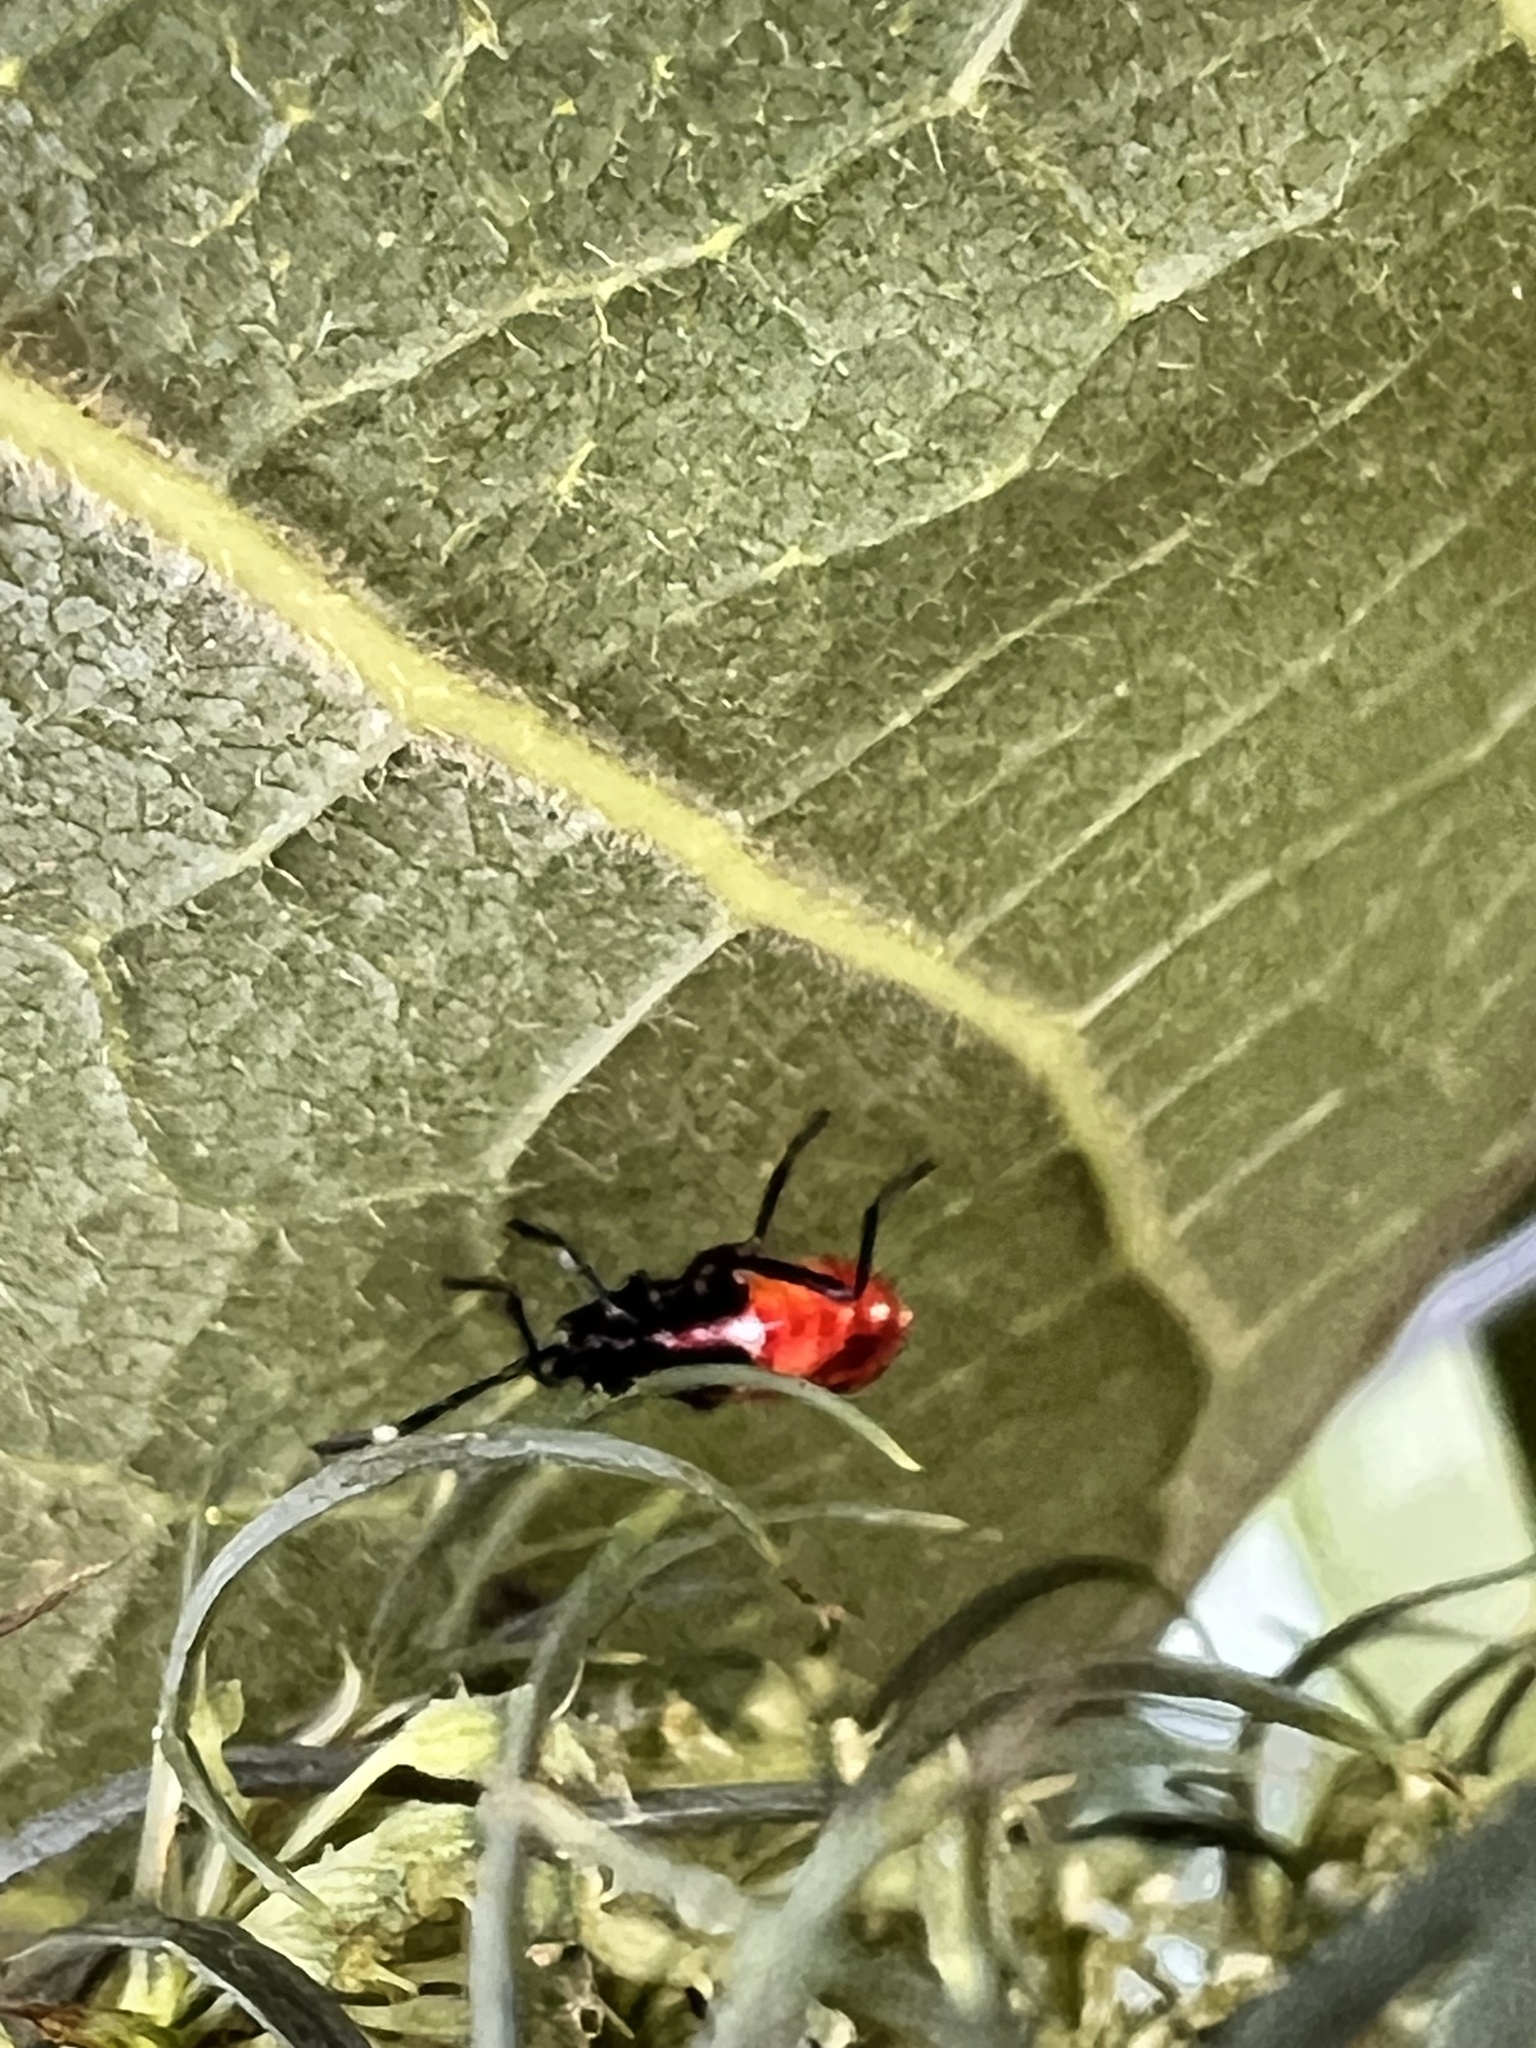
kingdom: Animalia
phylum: Arthropoda
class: Insecta
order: Hemiptera
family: Pyrrhocoridae
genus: Dindymus
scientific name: Dindymus
